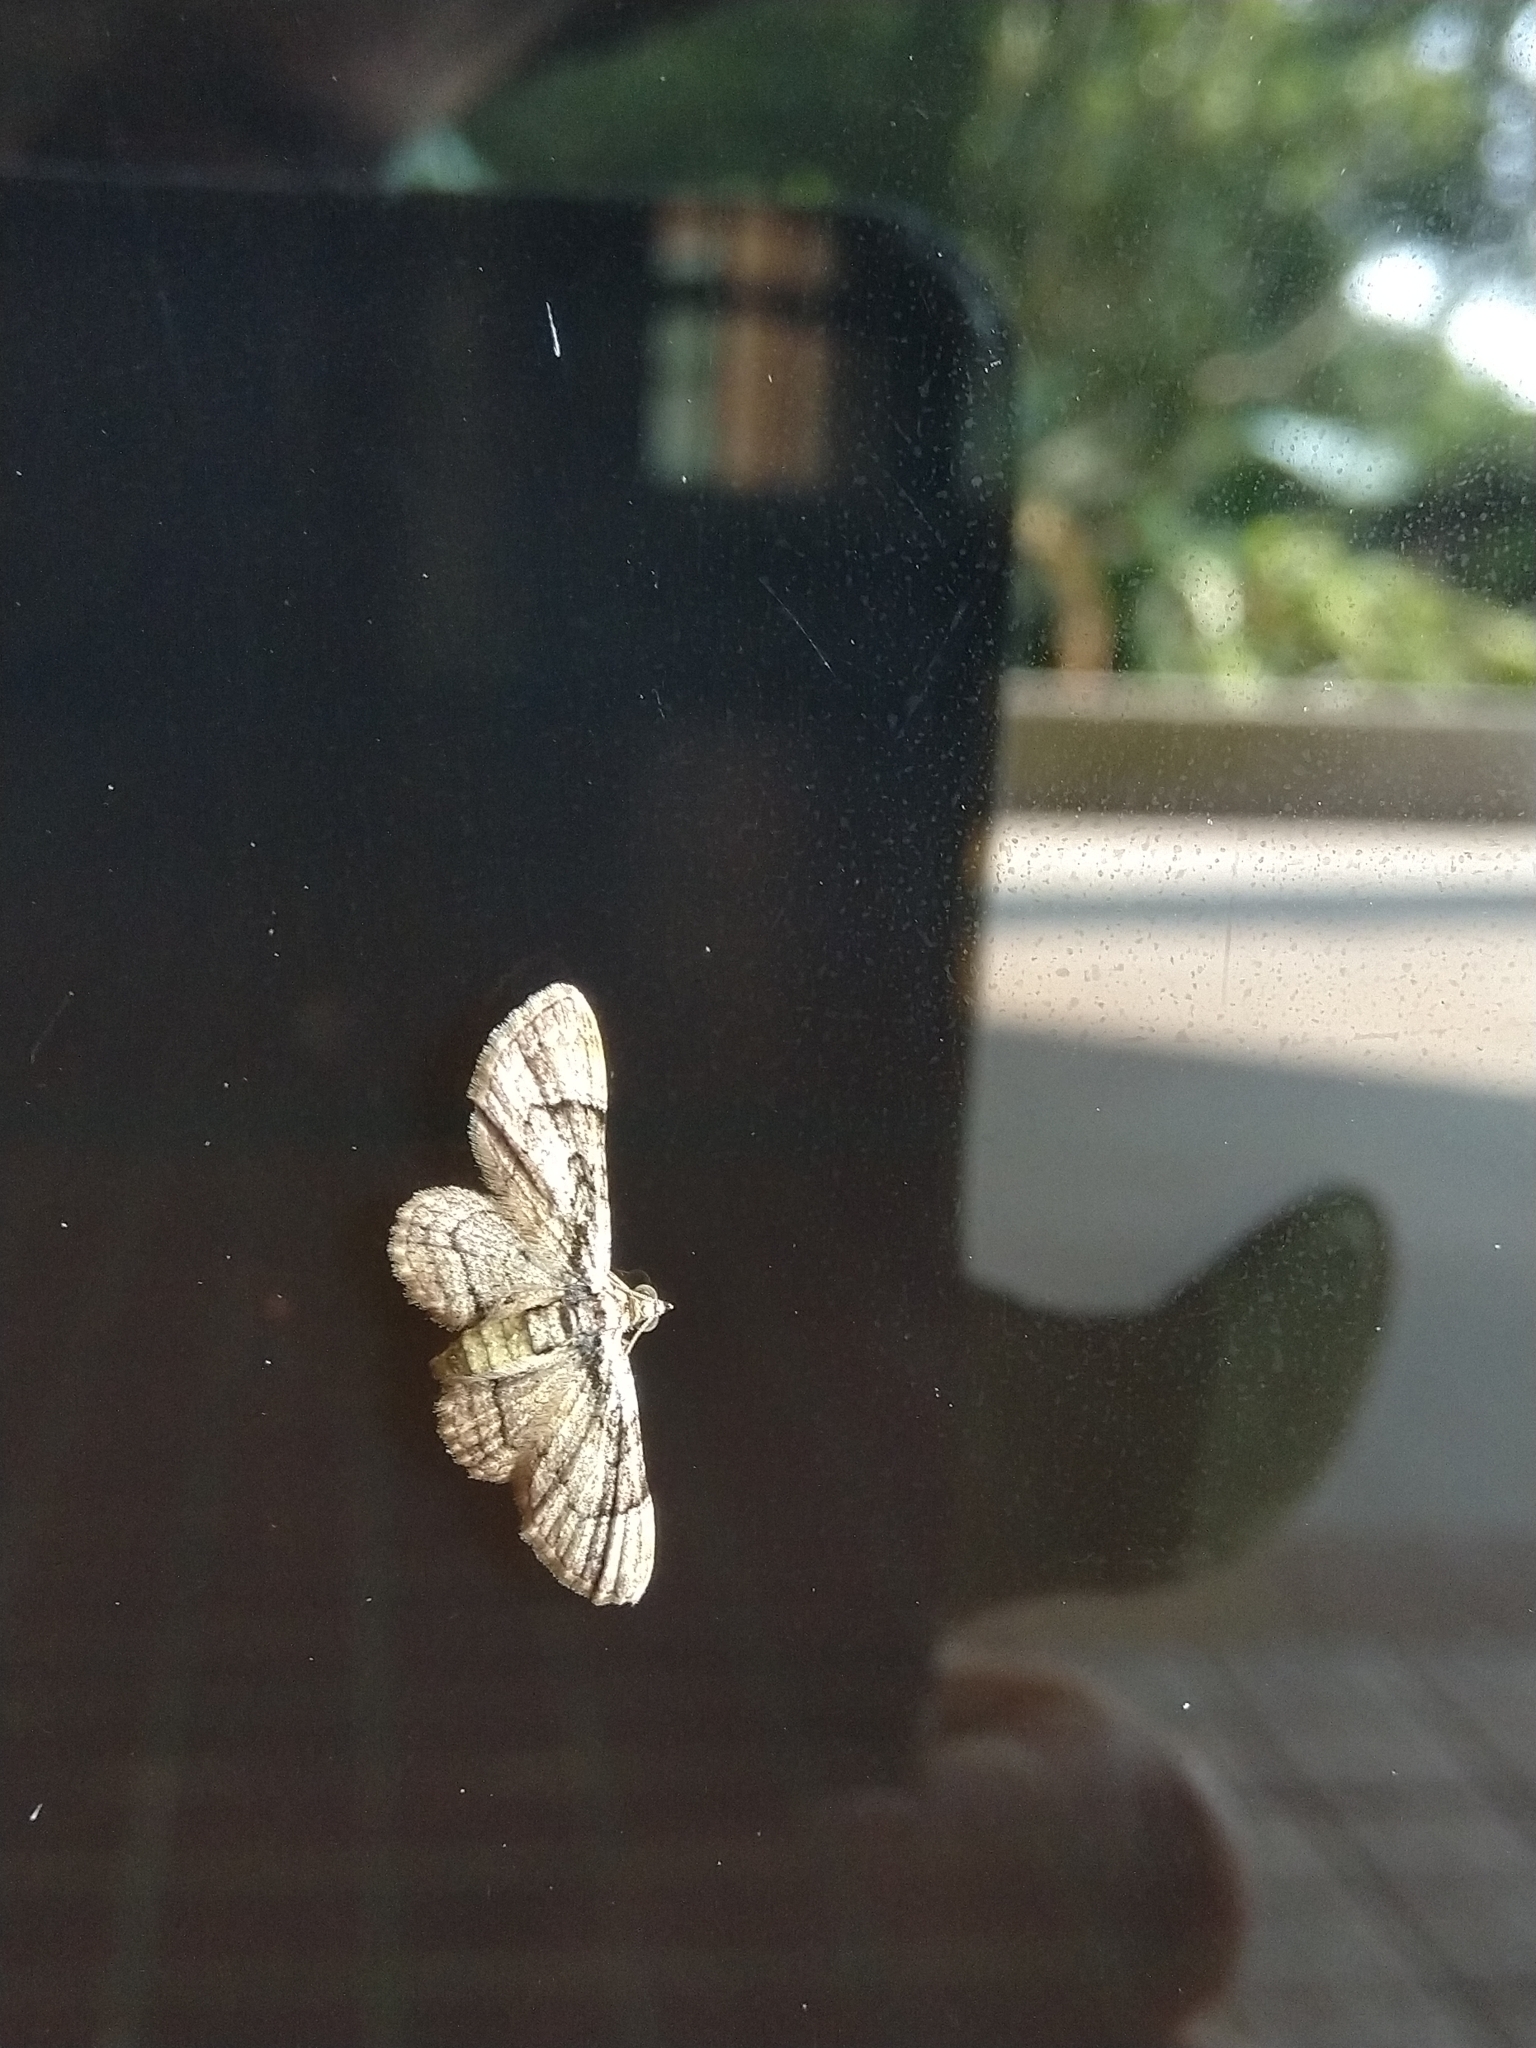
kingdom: Animalia
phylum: Arthropoda
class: Insecta
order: Lepidoptera
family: Geometridae
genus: Gymnoscelis
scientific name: Gymnoscelis tristrigosa
